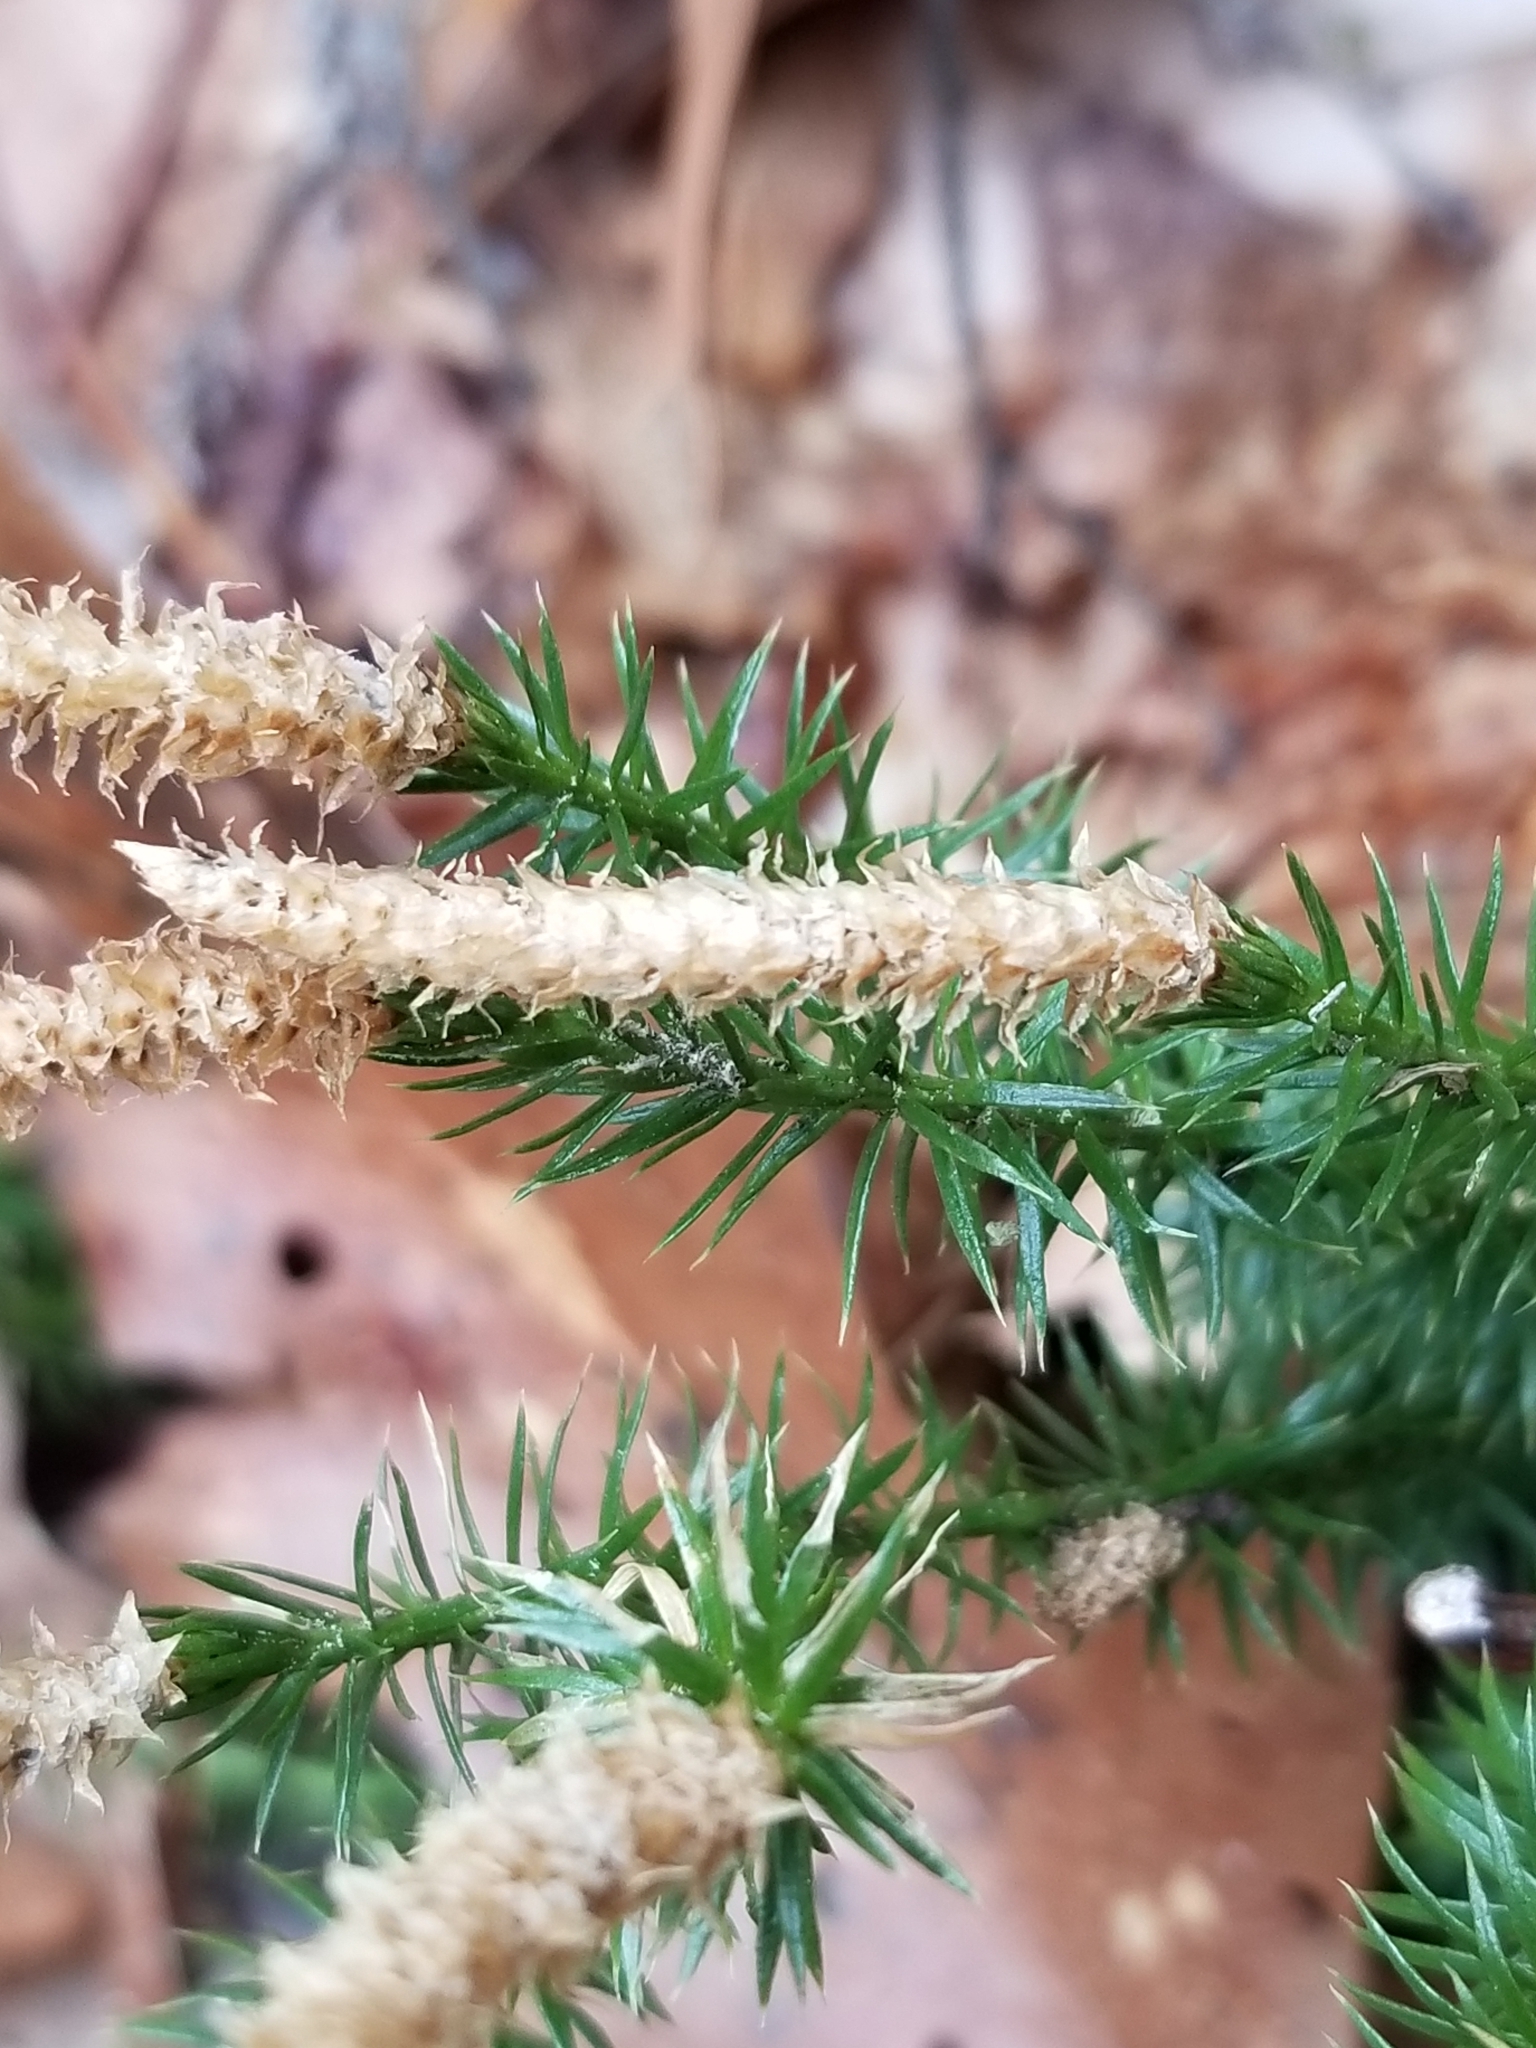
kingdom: Plantae
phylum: Tracheophyta
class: Lycopodiopsida
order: Lycopodiales
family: Lycopodiaceae
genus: Spinulum
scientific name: Spinulum annotinum
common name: Interrupted club-moss
